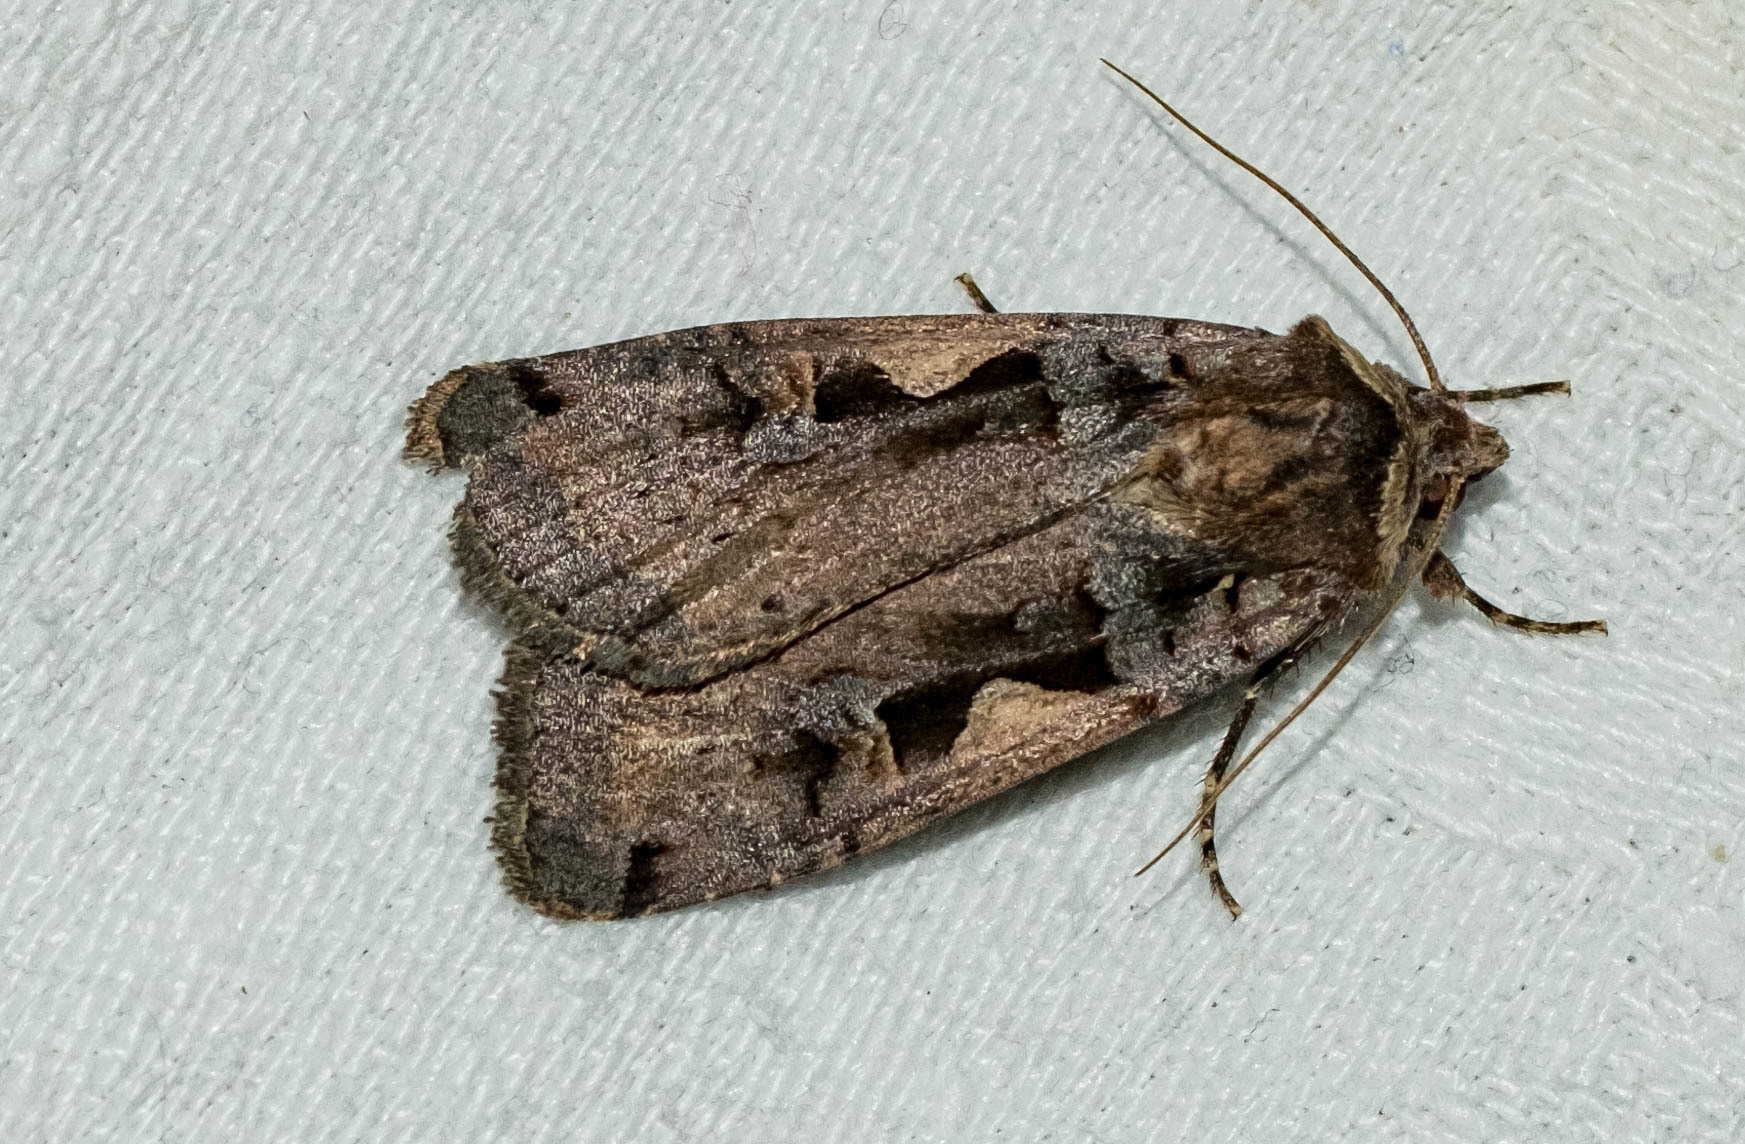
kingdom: Animalia
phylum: Arthropoda
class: Insecta
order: Lepidoptera
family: Noctuidae
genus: Xestia
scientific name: Xestia c-nigrum
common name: Setaceous hebrew character
